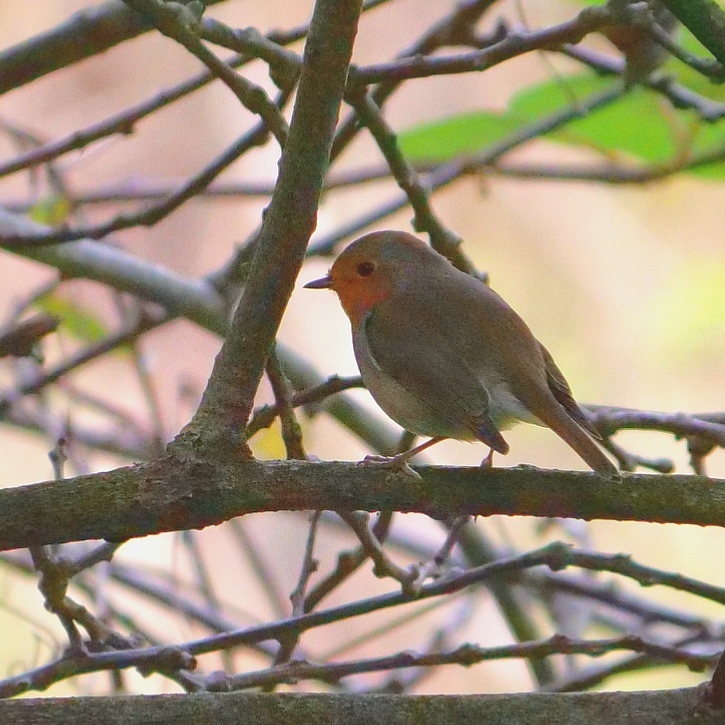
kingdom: Animalia
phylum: Chordata
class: Aves
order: Passeriformes
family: Muscicapidae
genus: Erithacus
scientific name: Erithacus rubecula
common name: European robin
